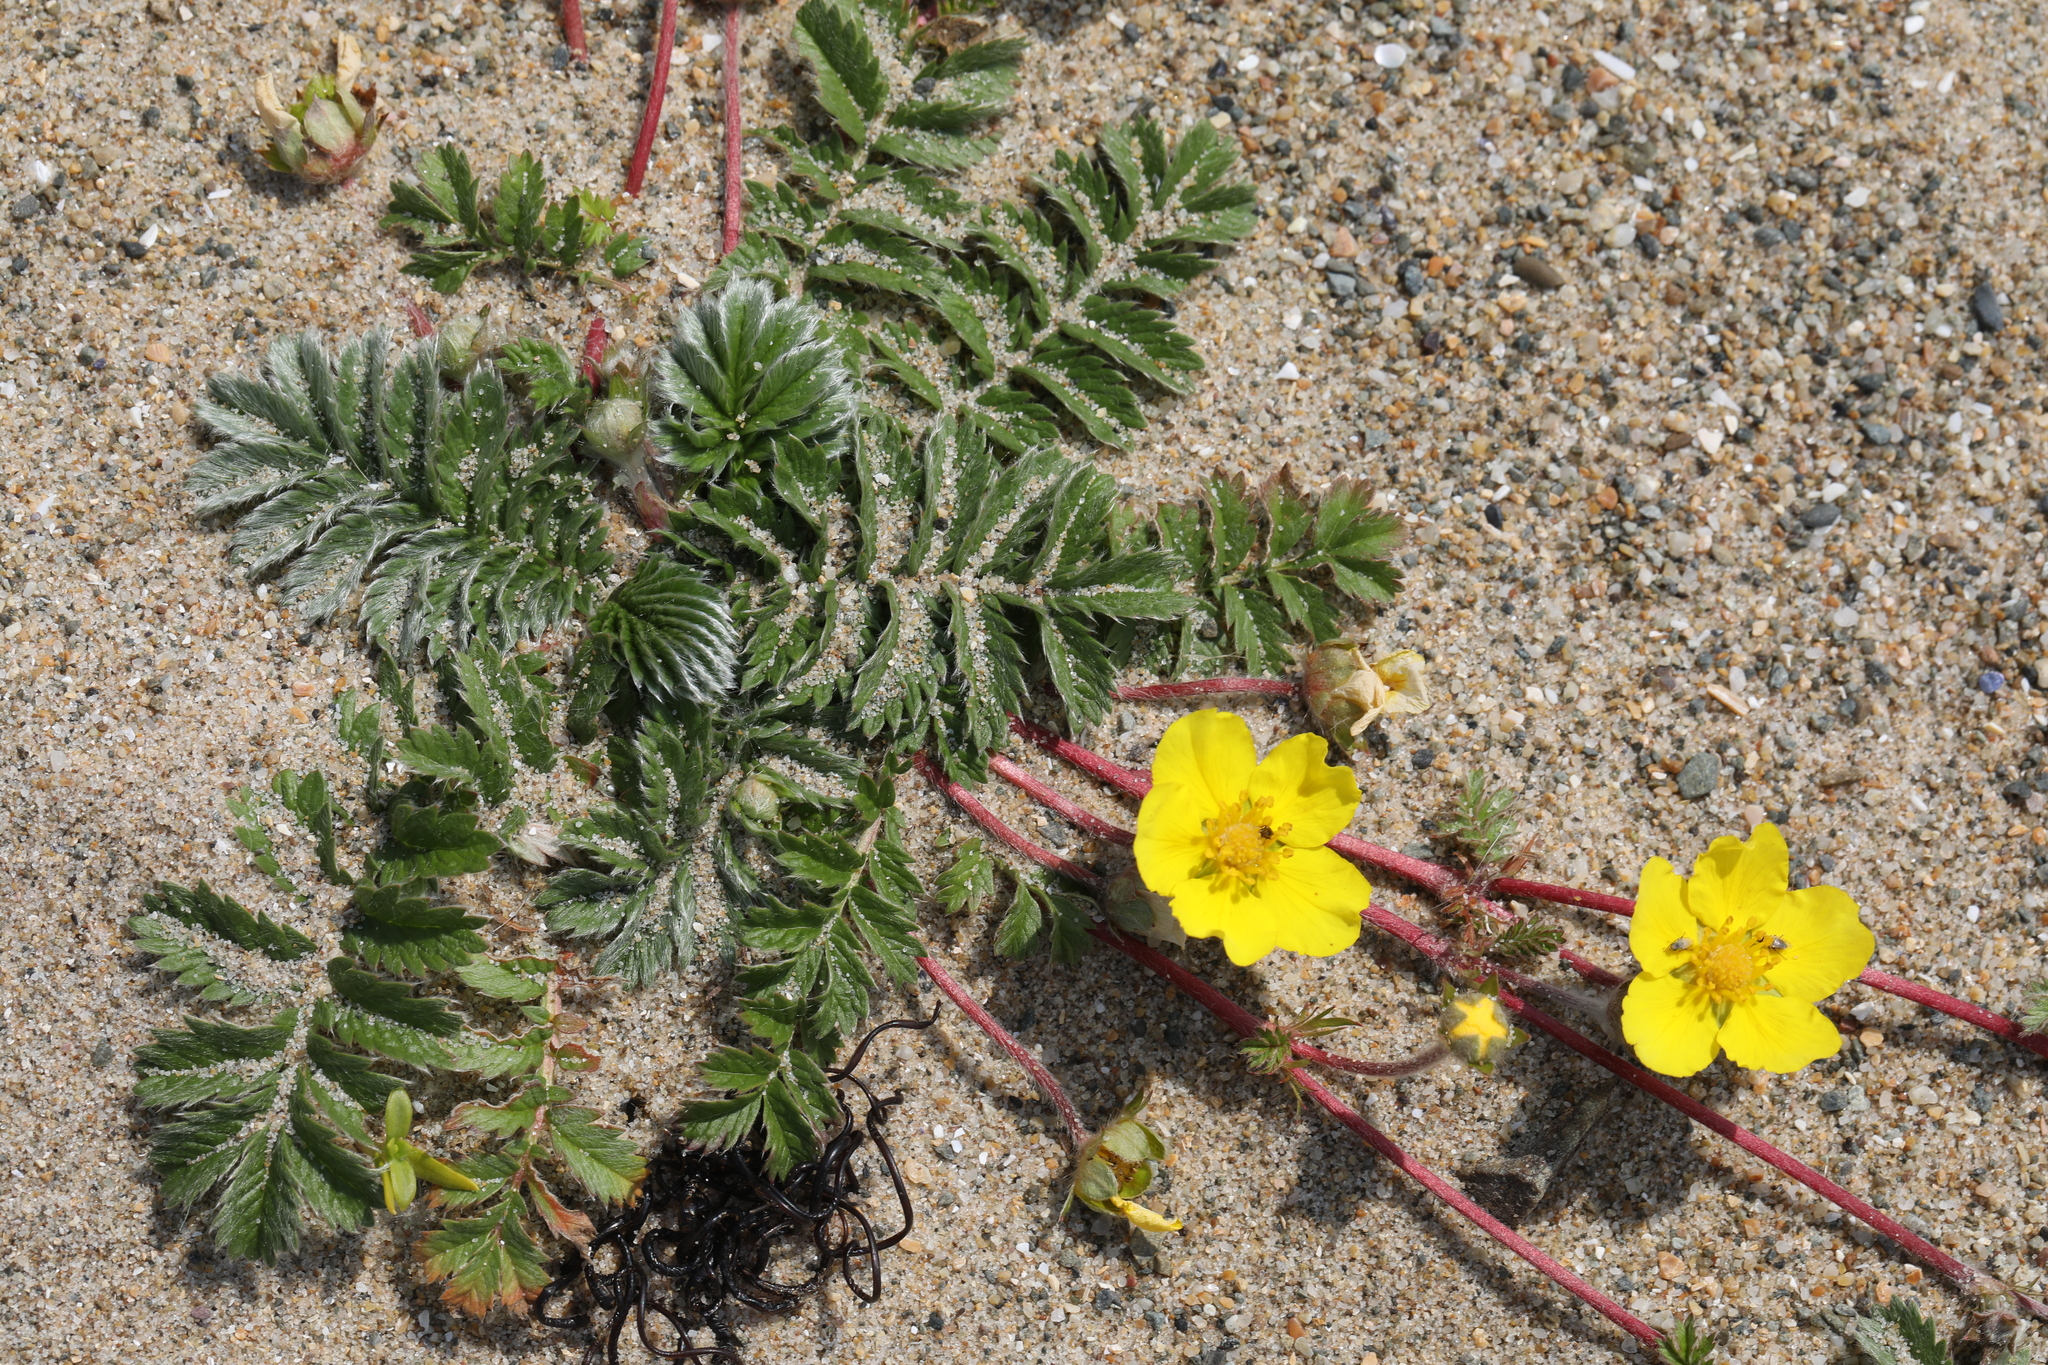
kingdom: Plantae
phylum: Tracheophyta
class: Magnoliopsida
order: Rosales
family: Rosaceae
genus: Argentina
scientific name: Argentina anserina
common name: Common silverweed
